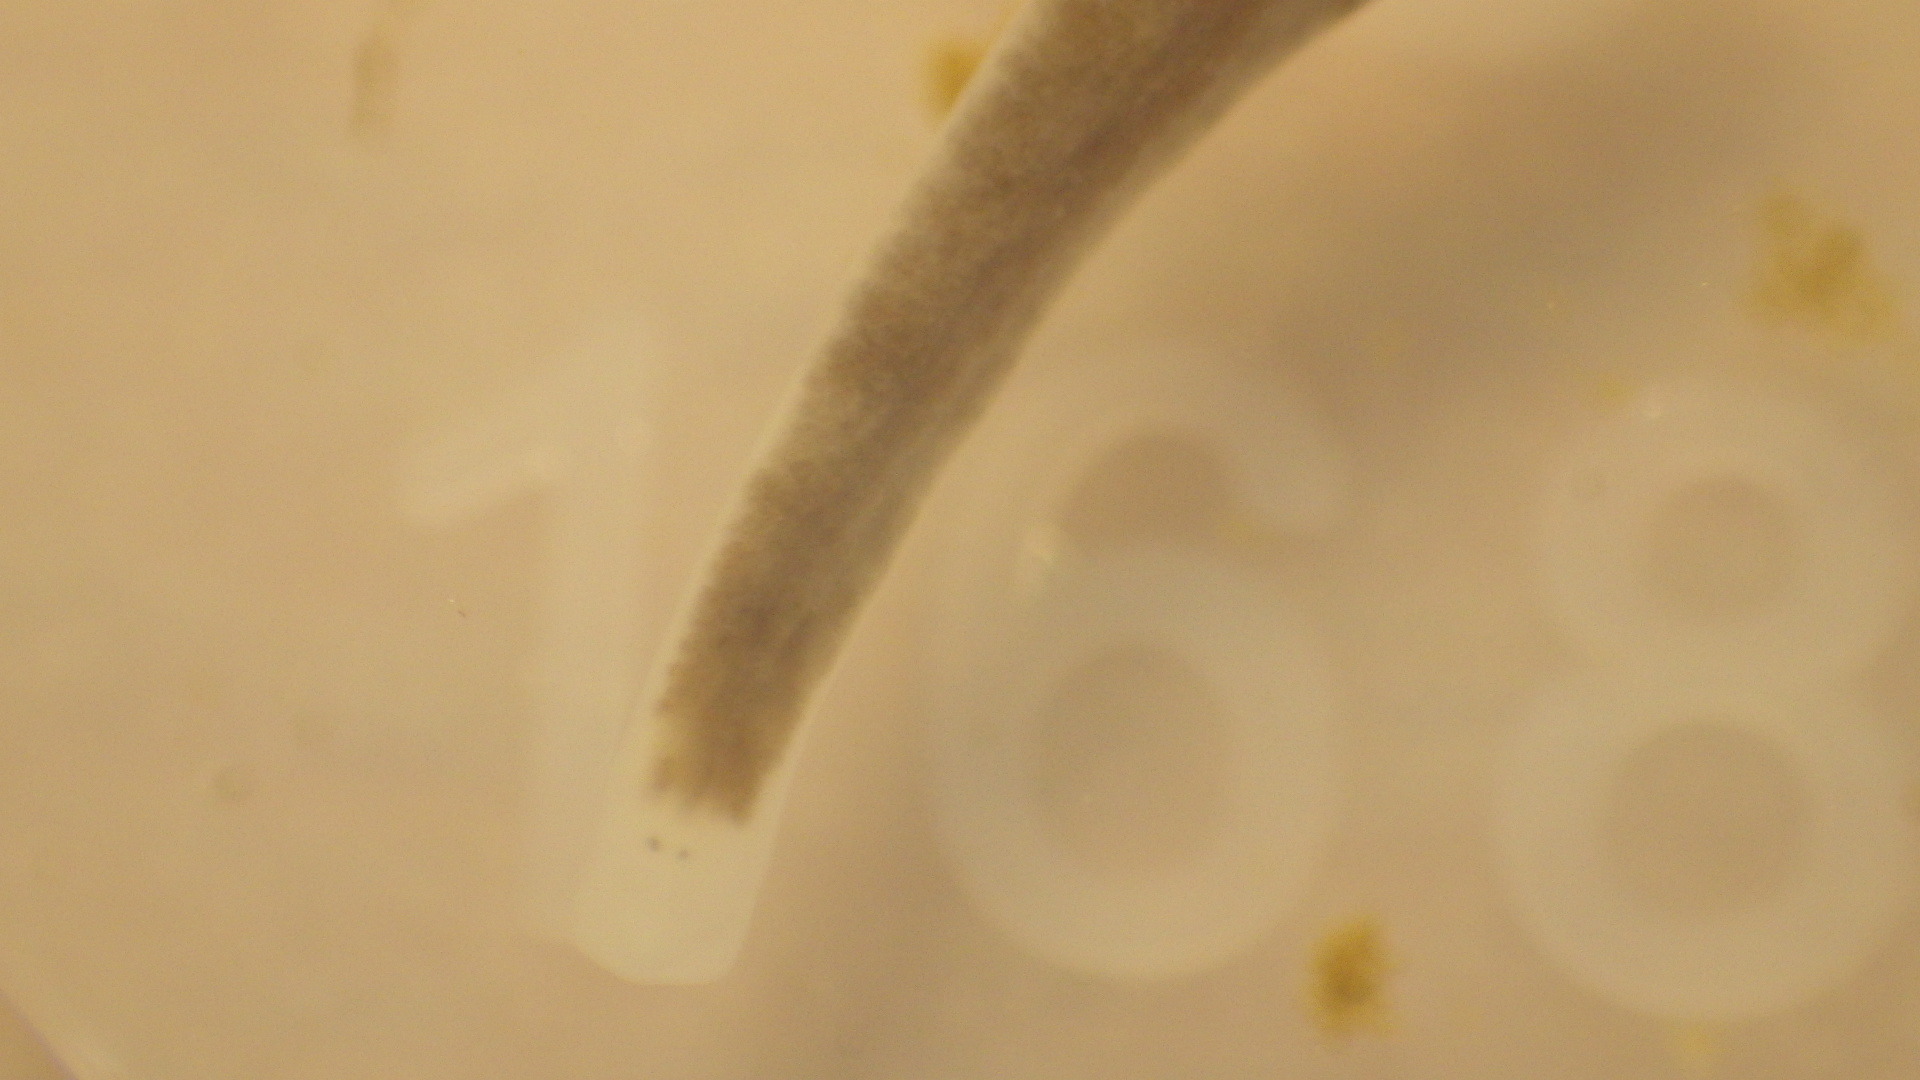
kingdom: Animalia
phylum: Platyhelminthes
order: Tricladida
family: Planariidae
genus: Phagocata
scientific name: Phagocata morgani
